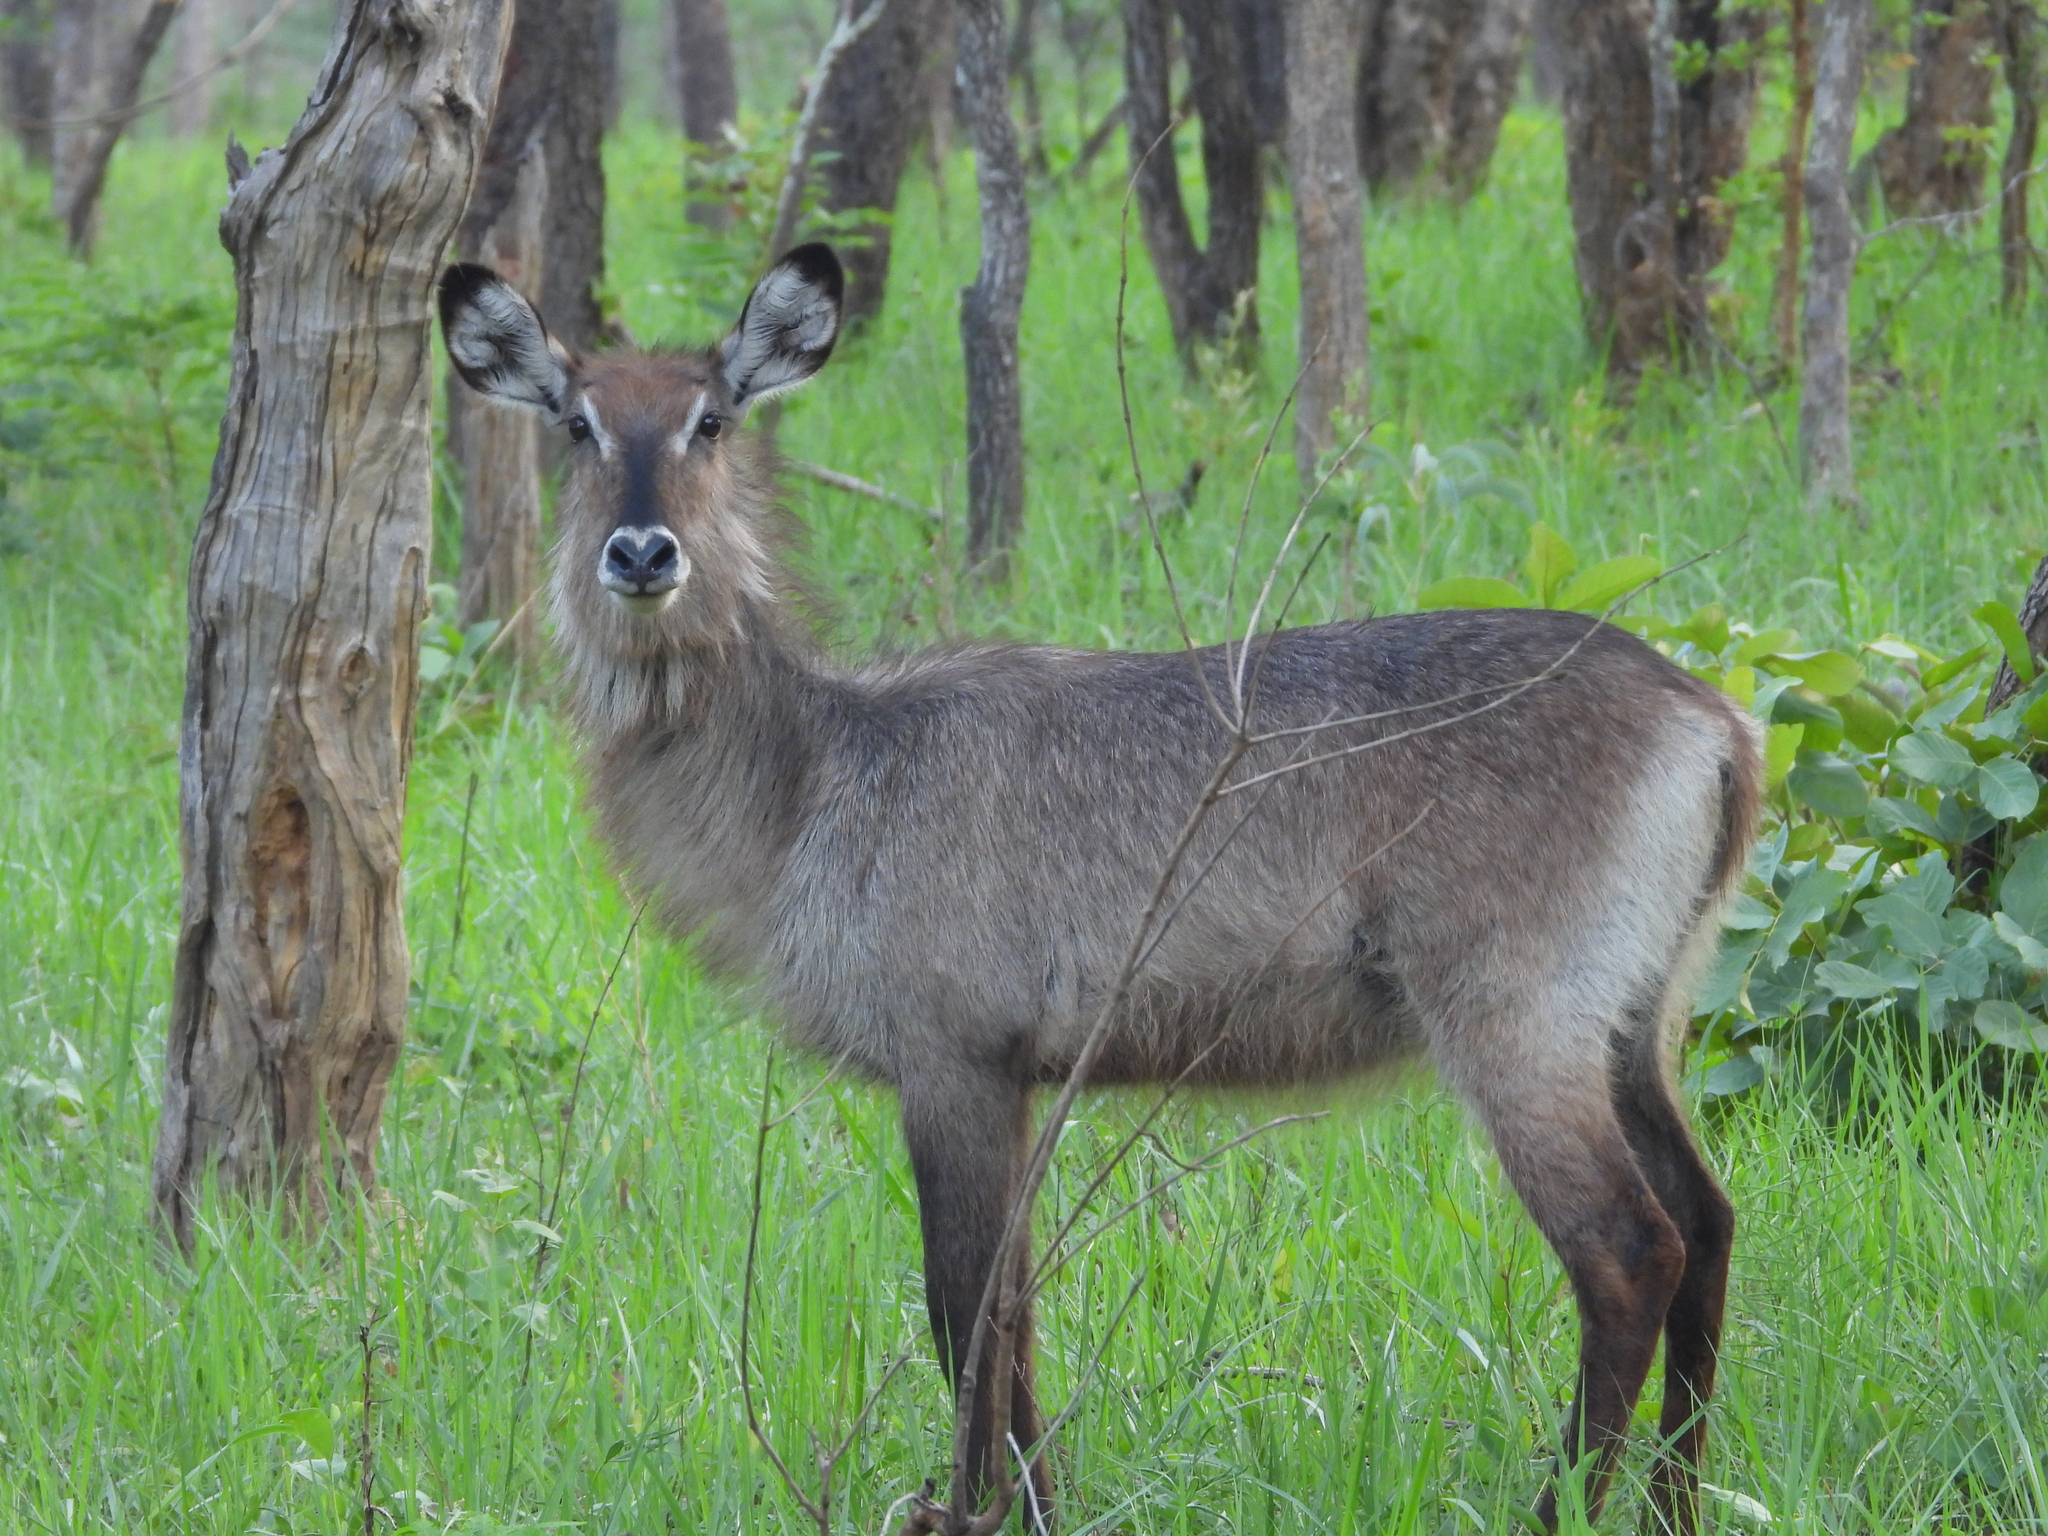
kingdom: Animalia
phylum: Chordata
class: Mammalia
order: Artiodactyla
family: Bovidae
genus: Kobus
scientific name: Kobus ellipsiprymnus
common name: Waterbuck
